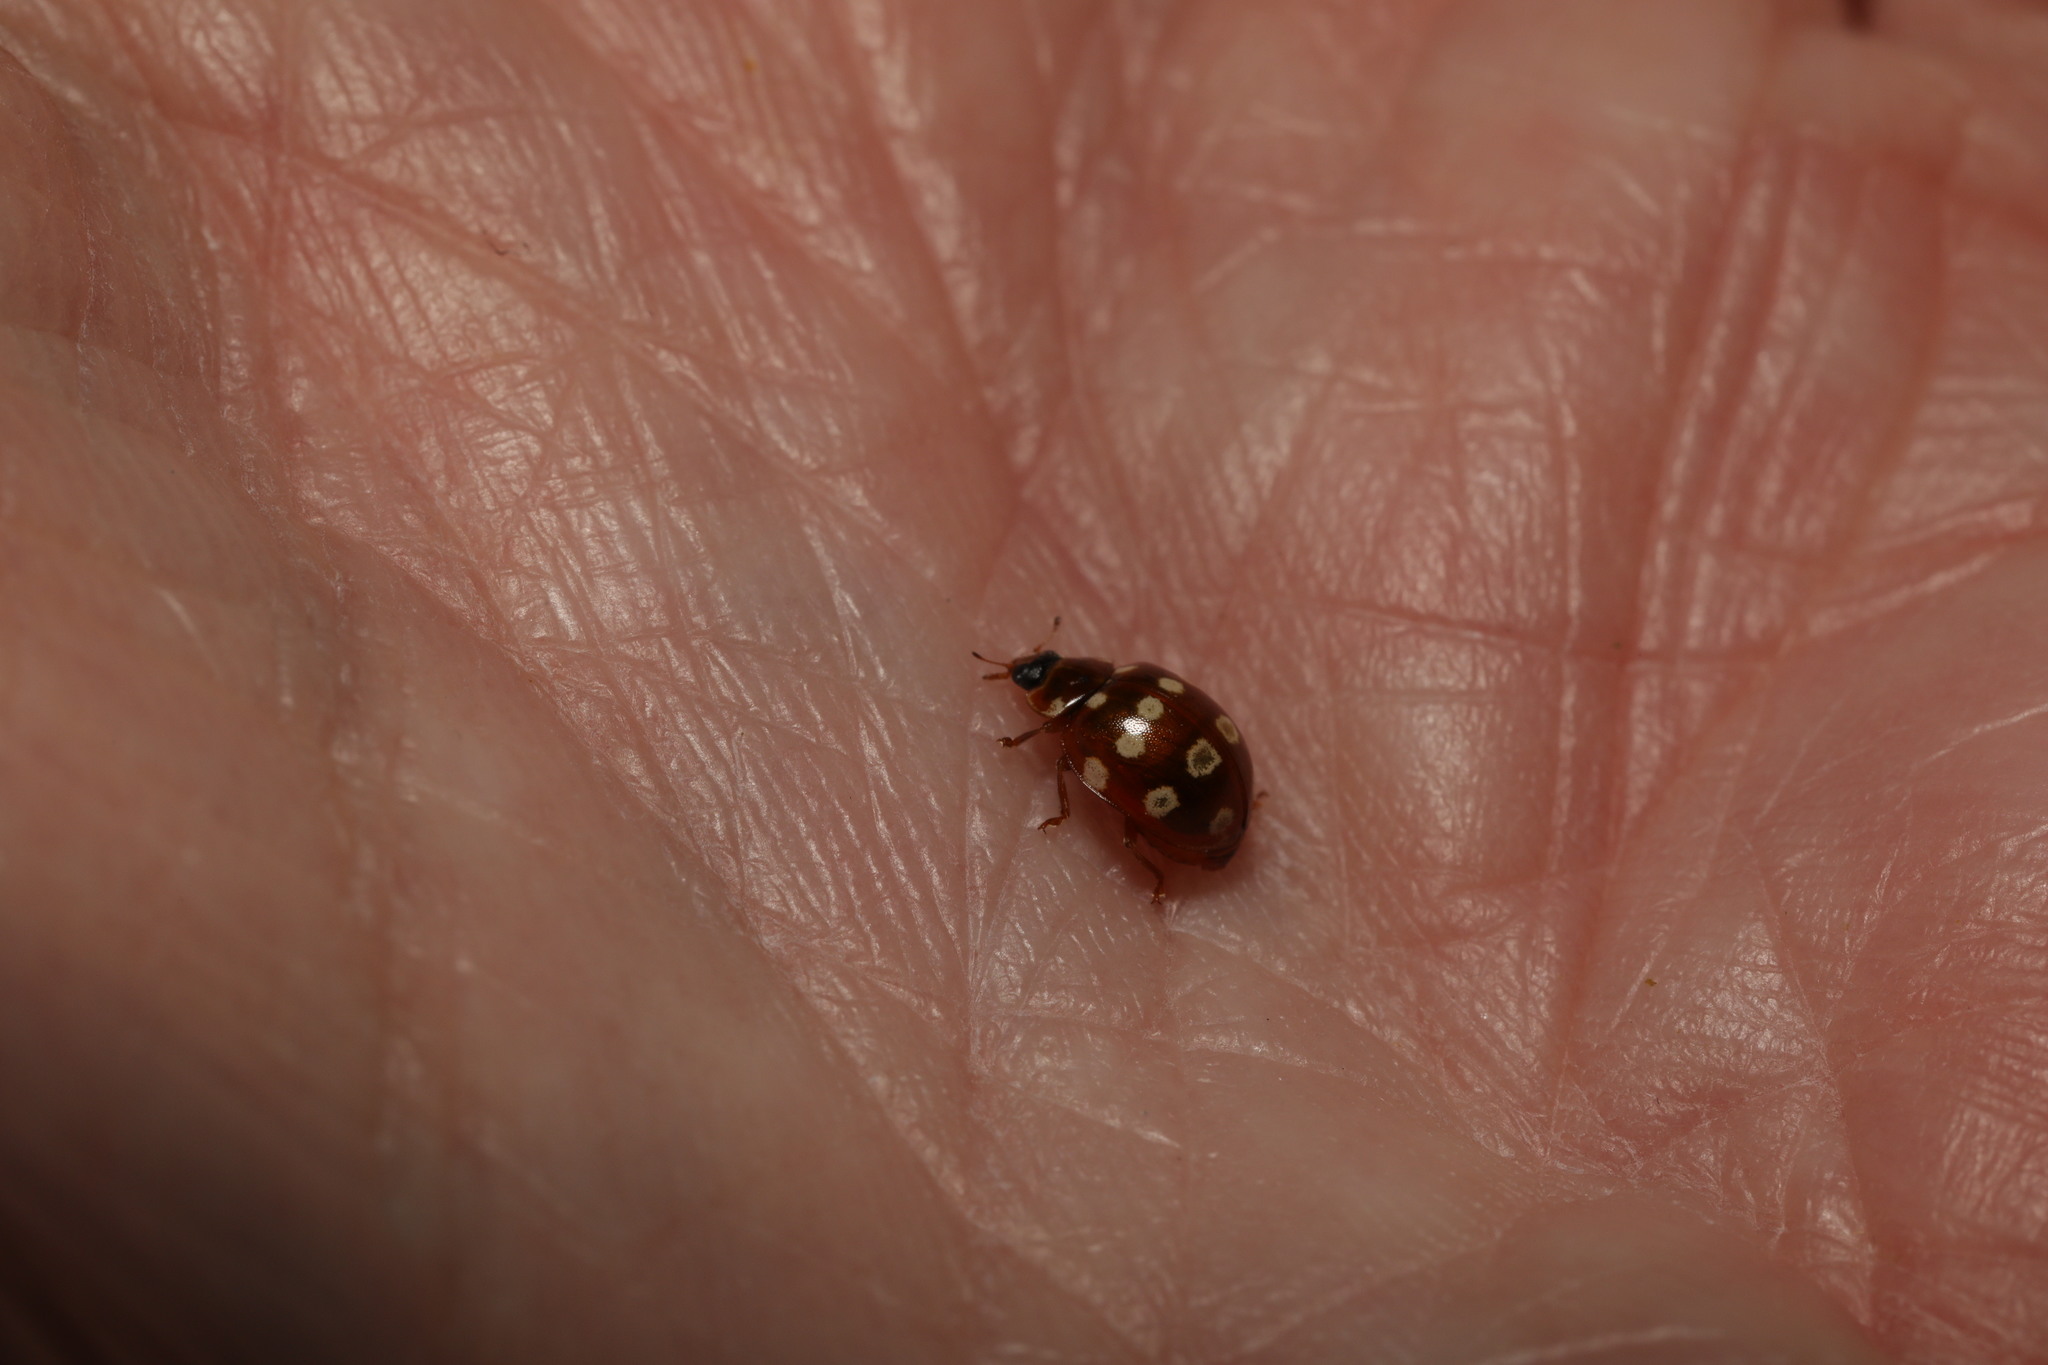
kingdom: Animalia
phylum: Arthropoda
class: Insecta
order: Coleoptera
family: Coccinellidae
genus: Calvia
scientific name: Calvia quatuordecimguttata
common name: Cream-spot ladybird
